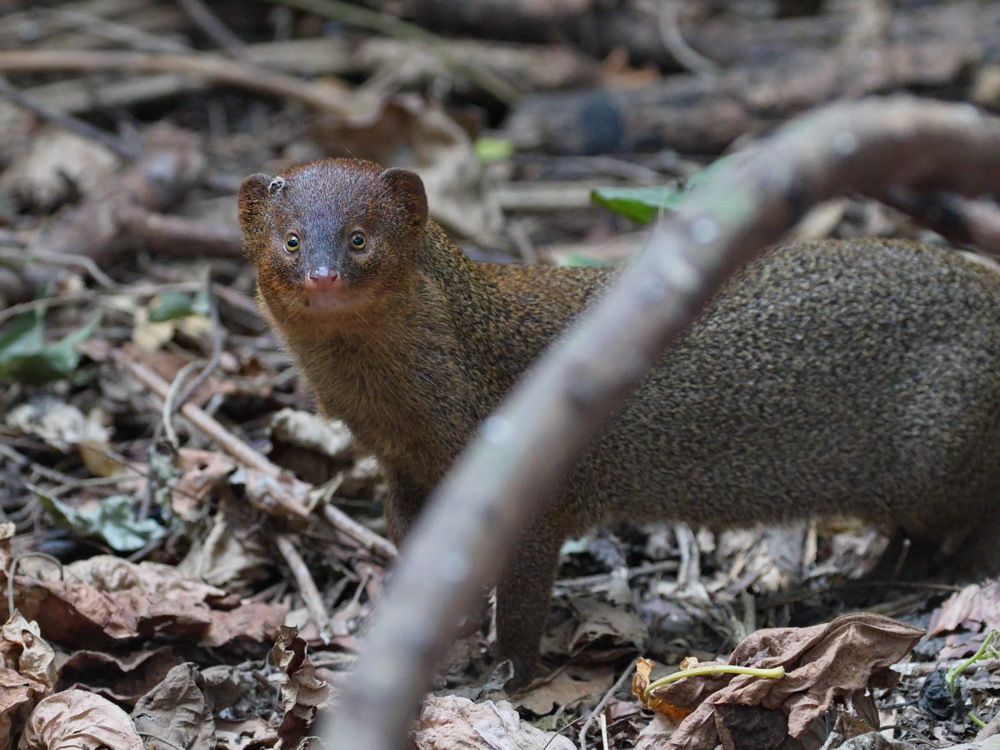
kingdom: Animalia
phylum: Chordata
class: Mammalia
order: Carnivora
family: Herpestidae
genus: Herpestes
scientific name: Herpestes javanicus
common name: Small asian mongoose
